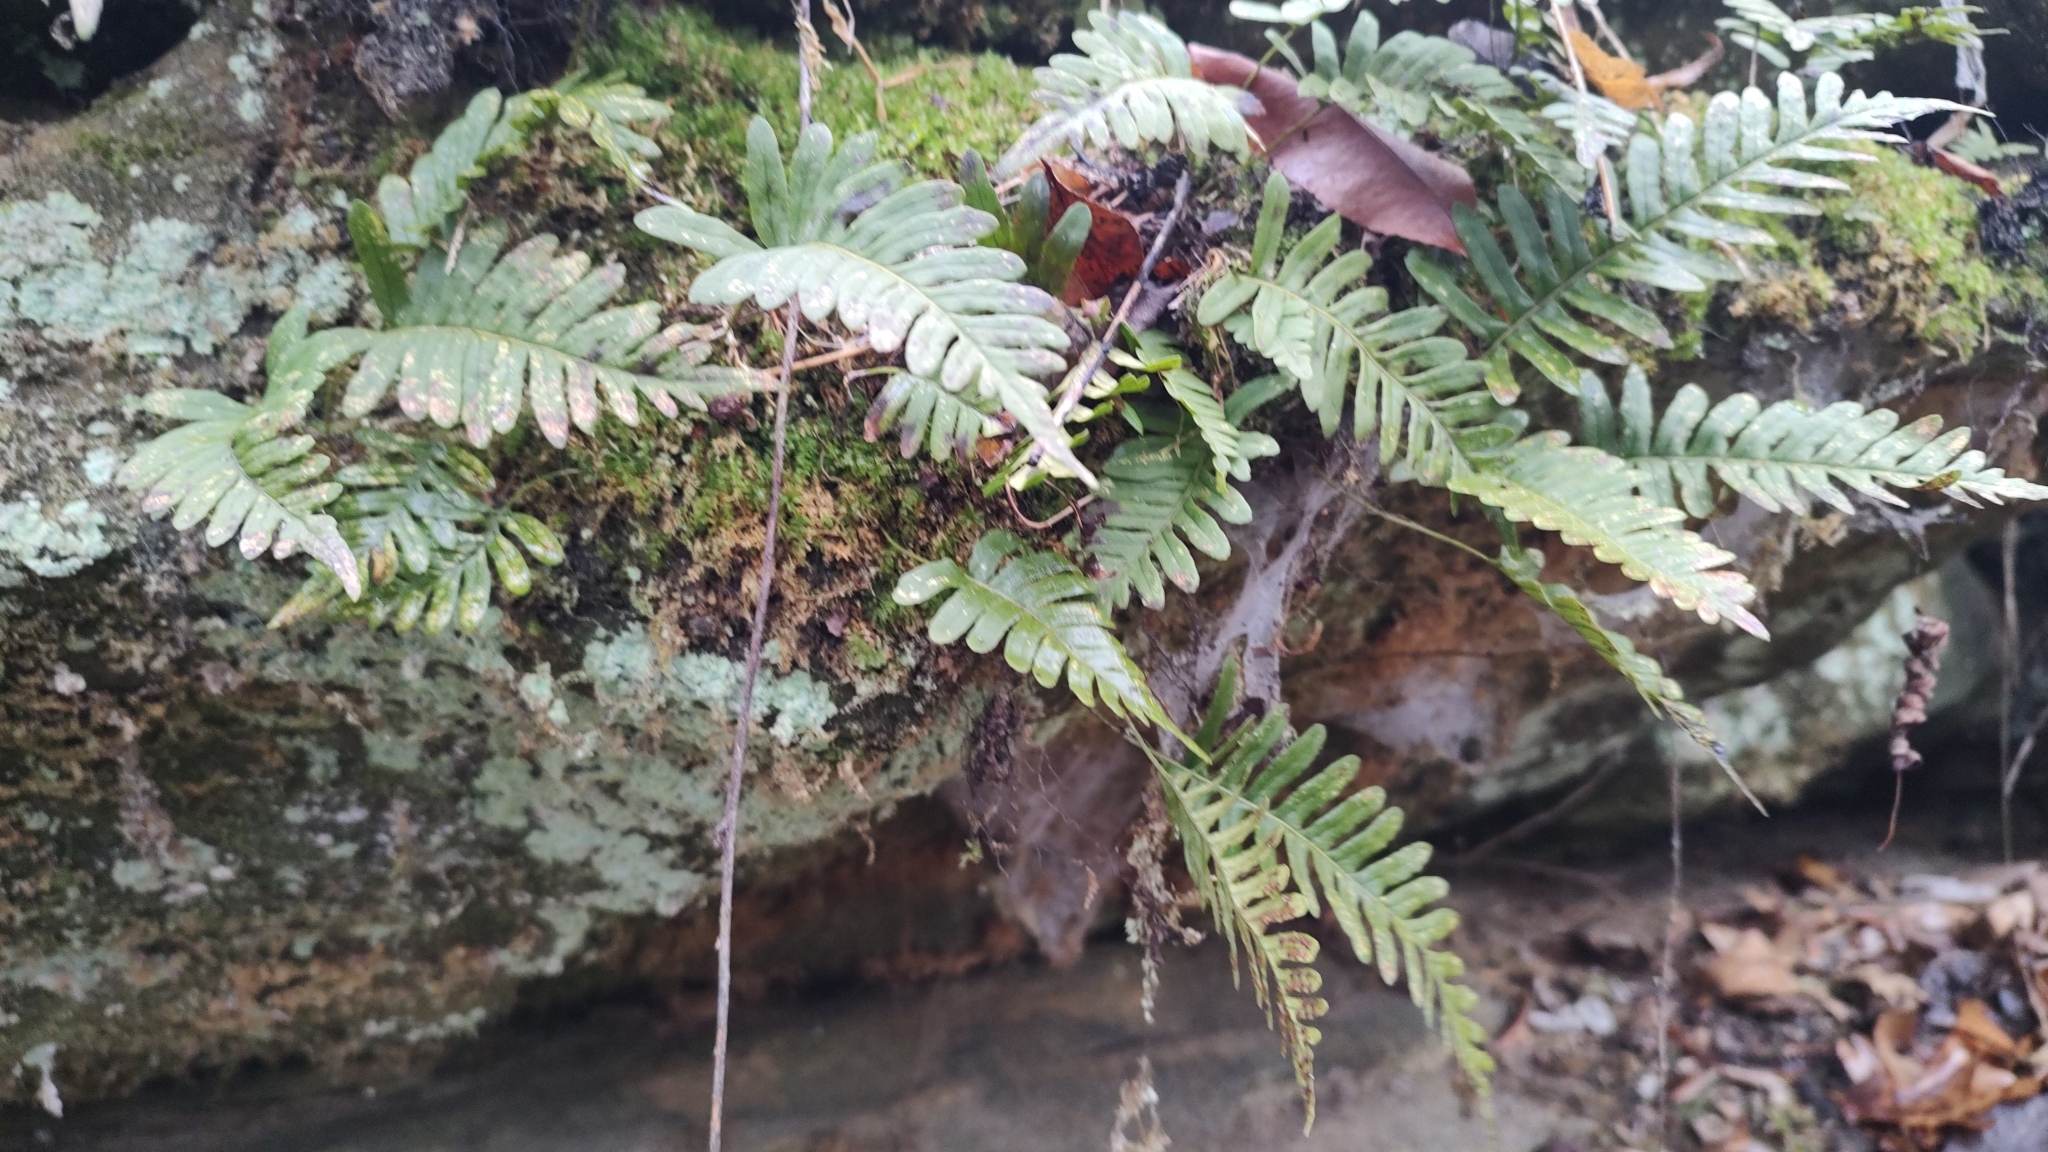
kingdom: Plantae
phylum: Tracheophyta
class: Polypodiopsida
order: Polypodiales
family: Polypodiaceae
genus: Polypodium
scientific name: Polypodium virginianum
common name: American wall fern
